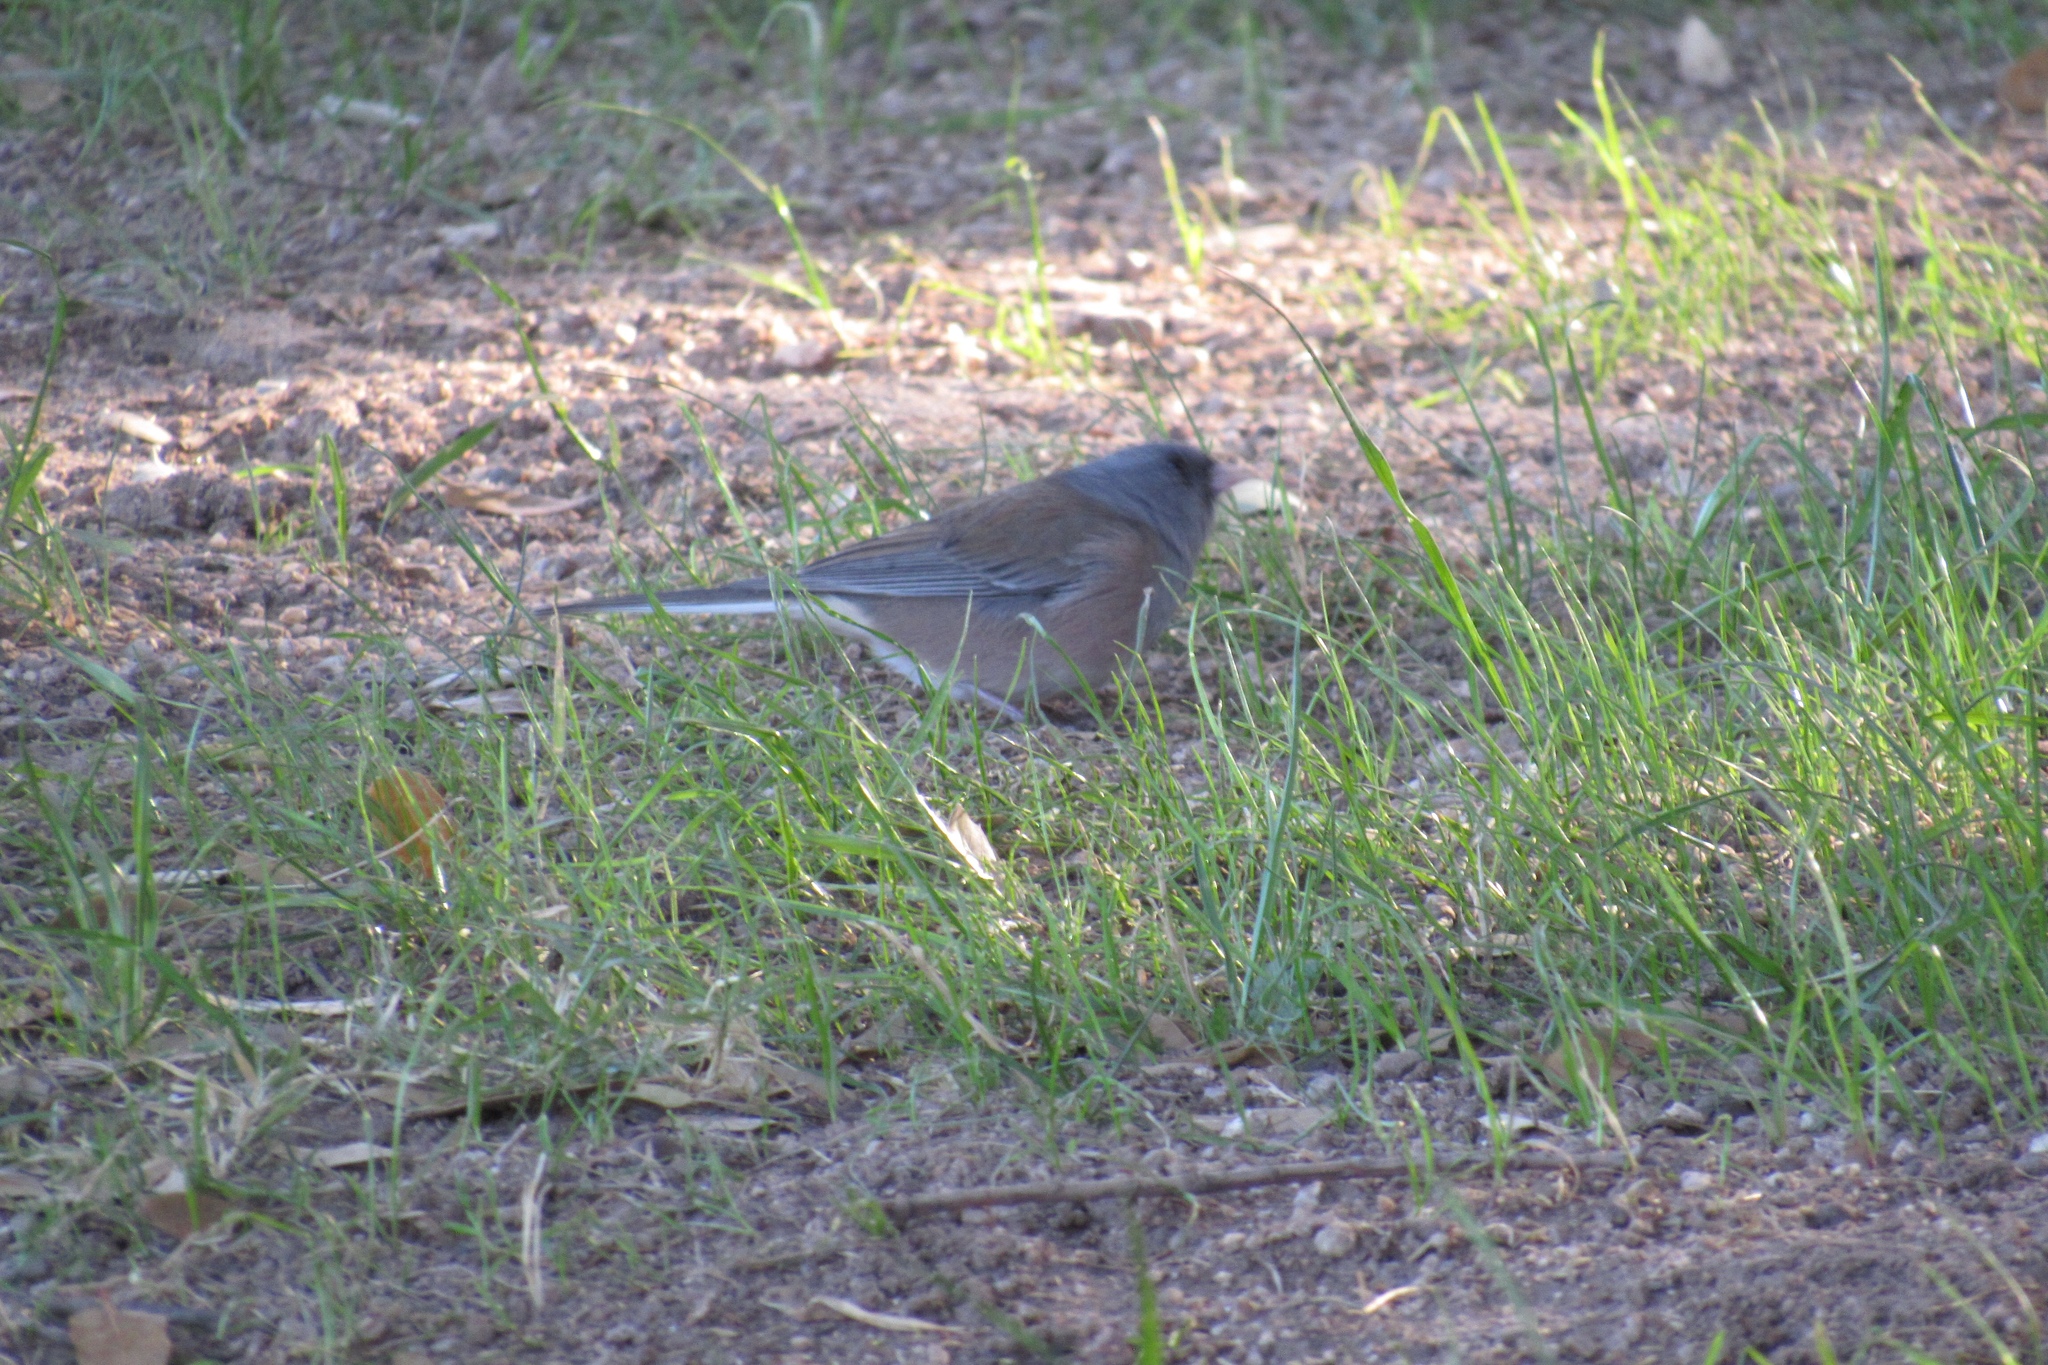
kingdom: Animalia
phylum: Chordata
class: Aves
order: Passeriformes
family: Passerellidae
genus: Junco
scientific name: Junco hyemalis
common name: Dark-eyed junco
